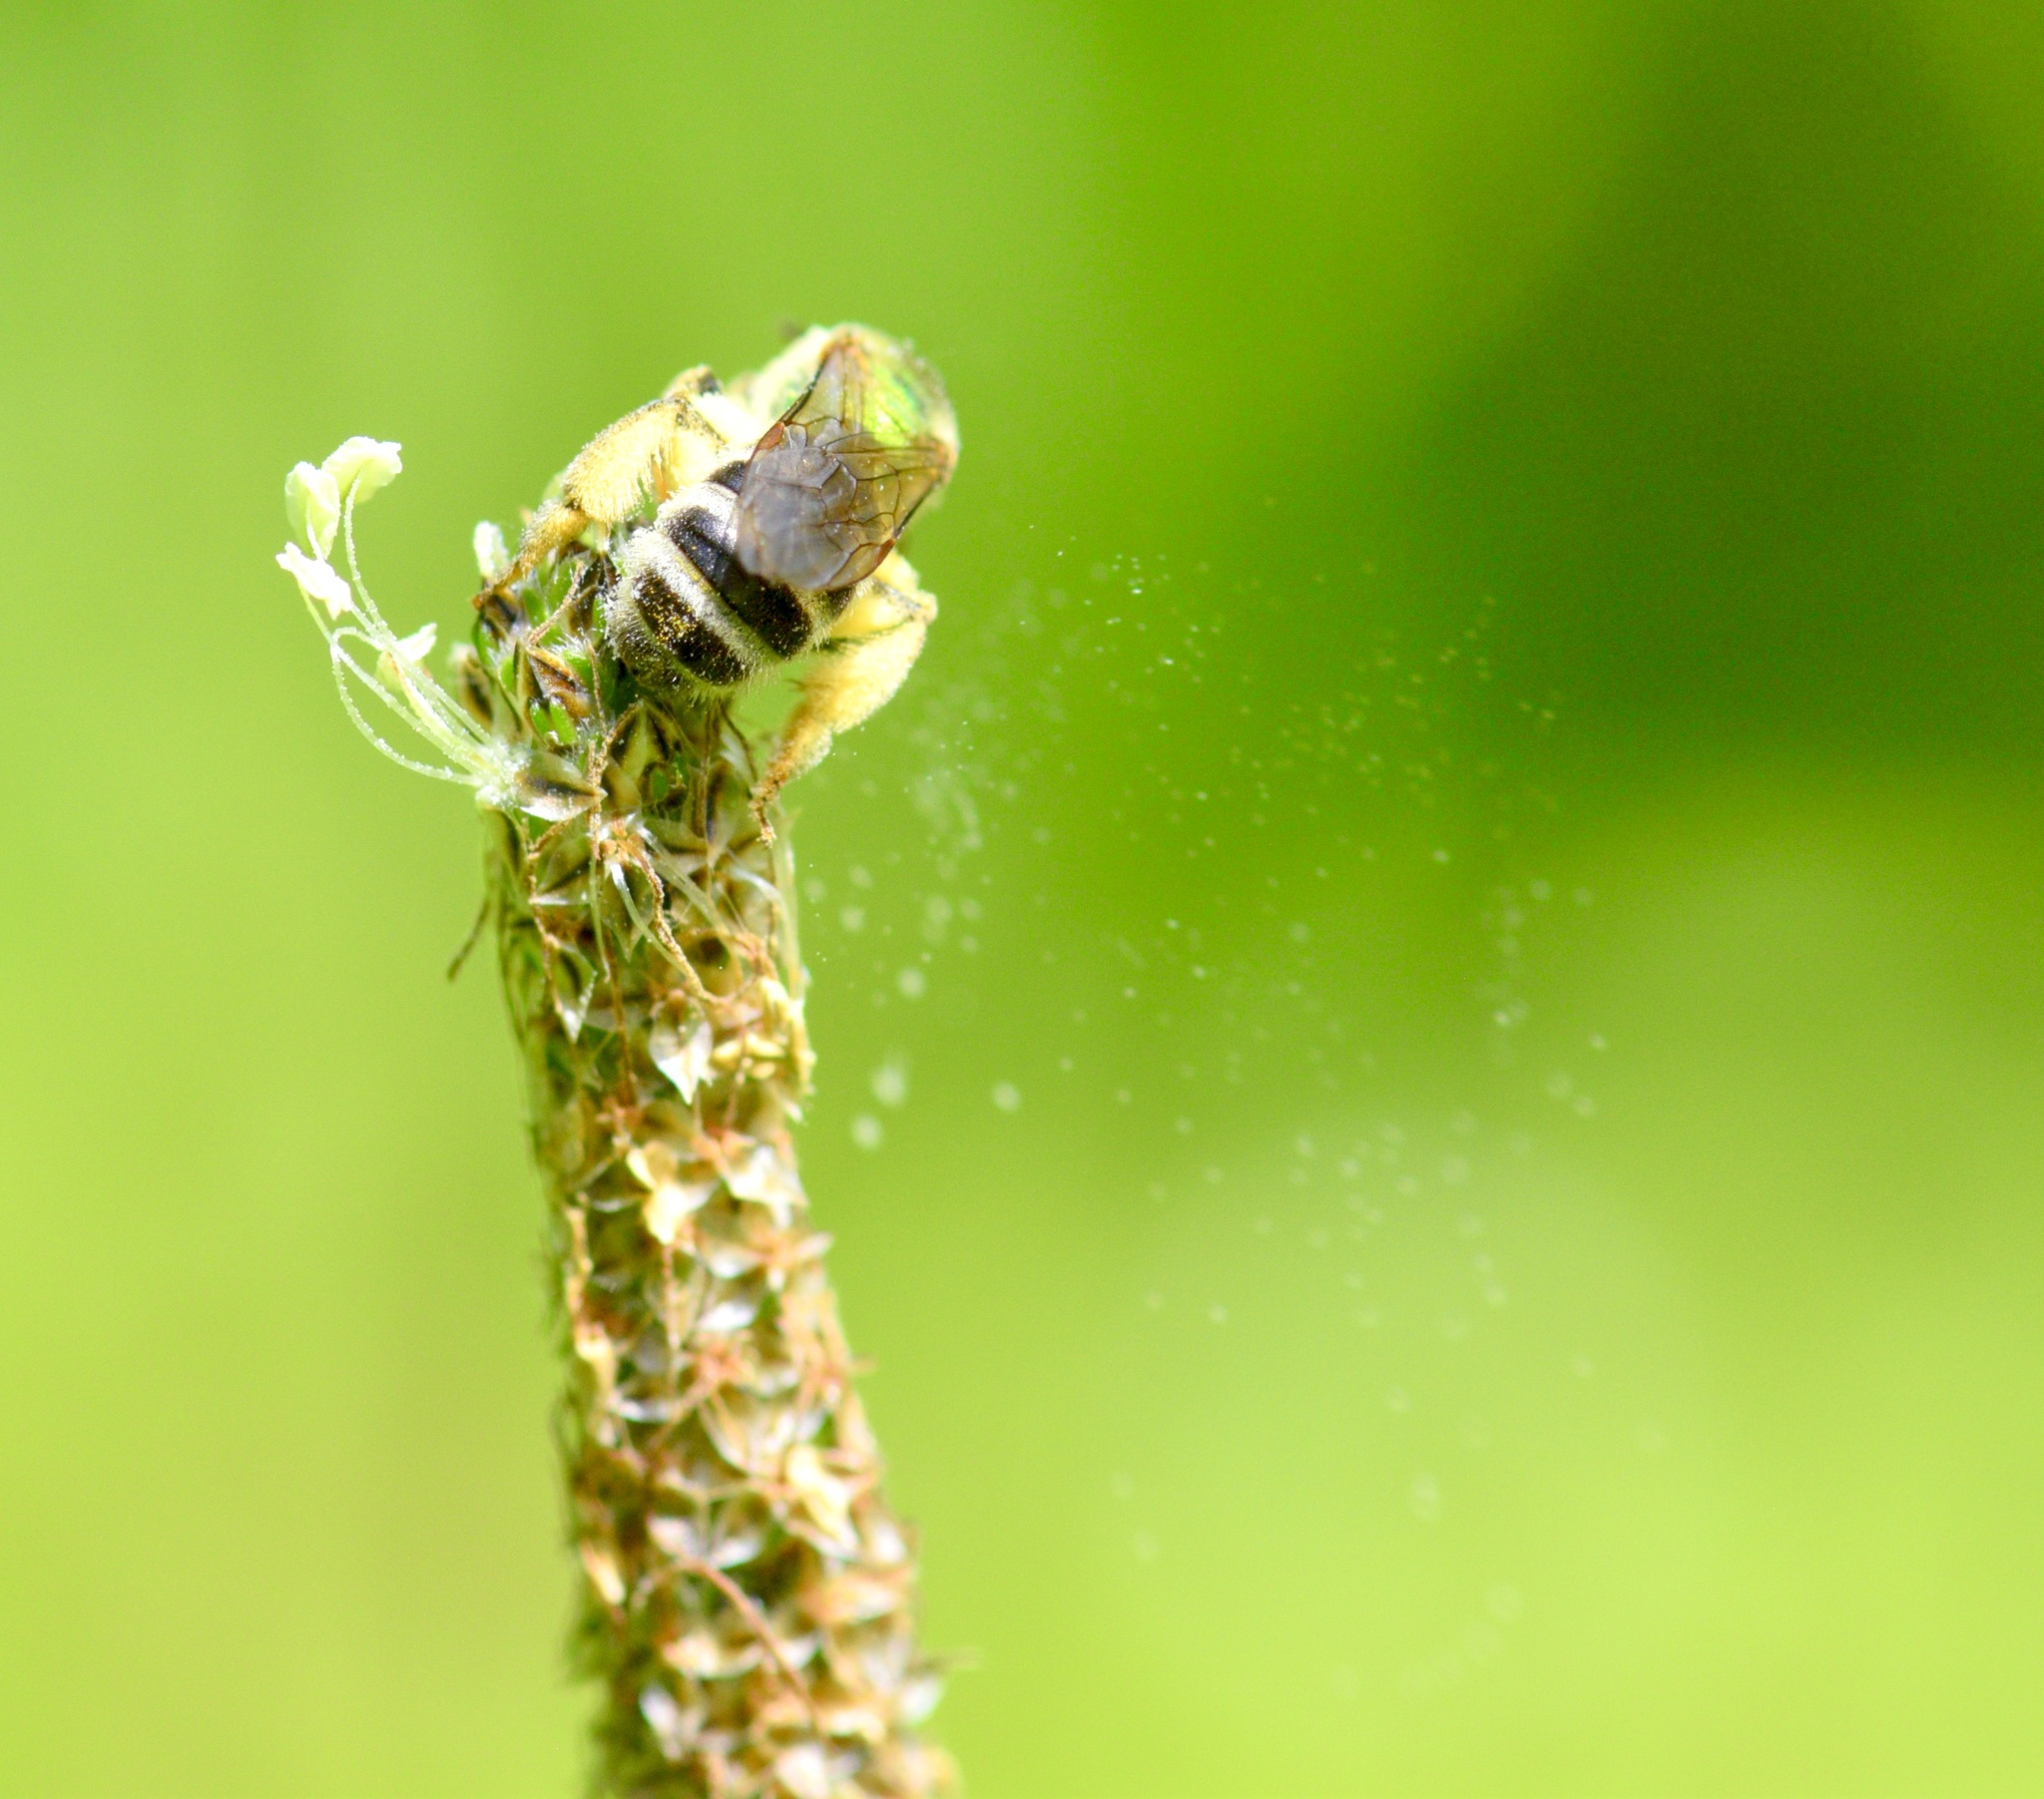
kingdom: Animalia
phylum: Arthropoda
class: Insecta
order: Hymenoptera
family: Halictidae
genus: Agapostemon
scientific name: Agapostemon virescens
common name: Bicolored striped sweat bee
